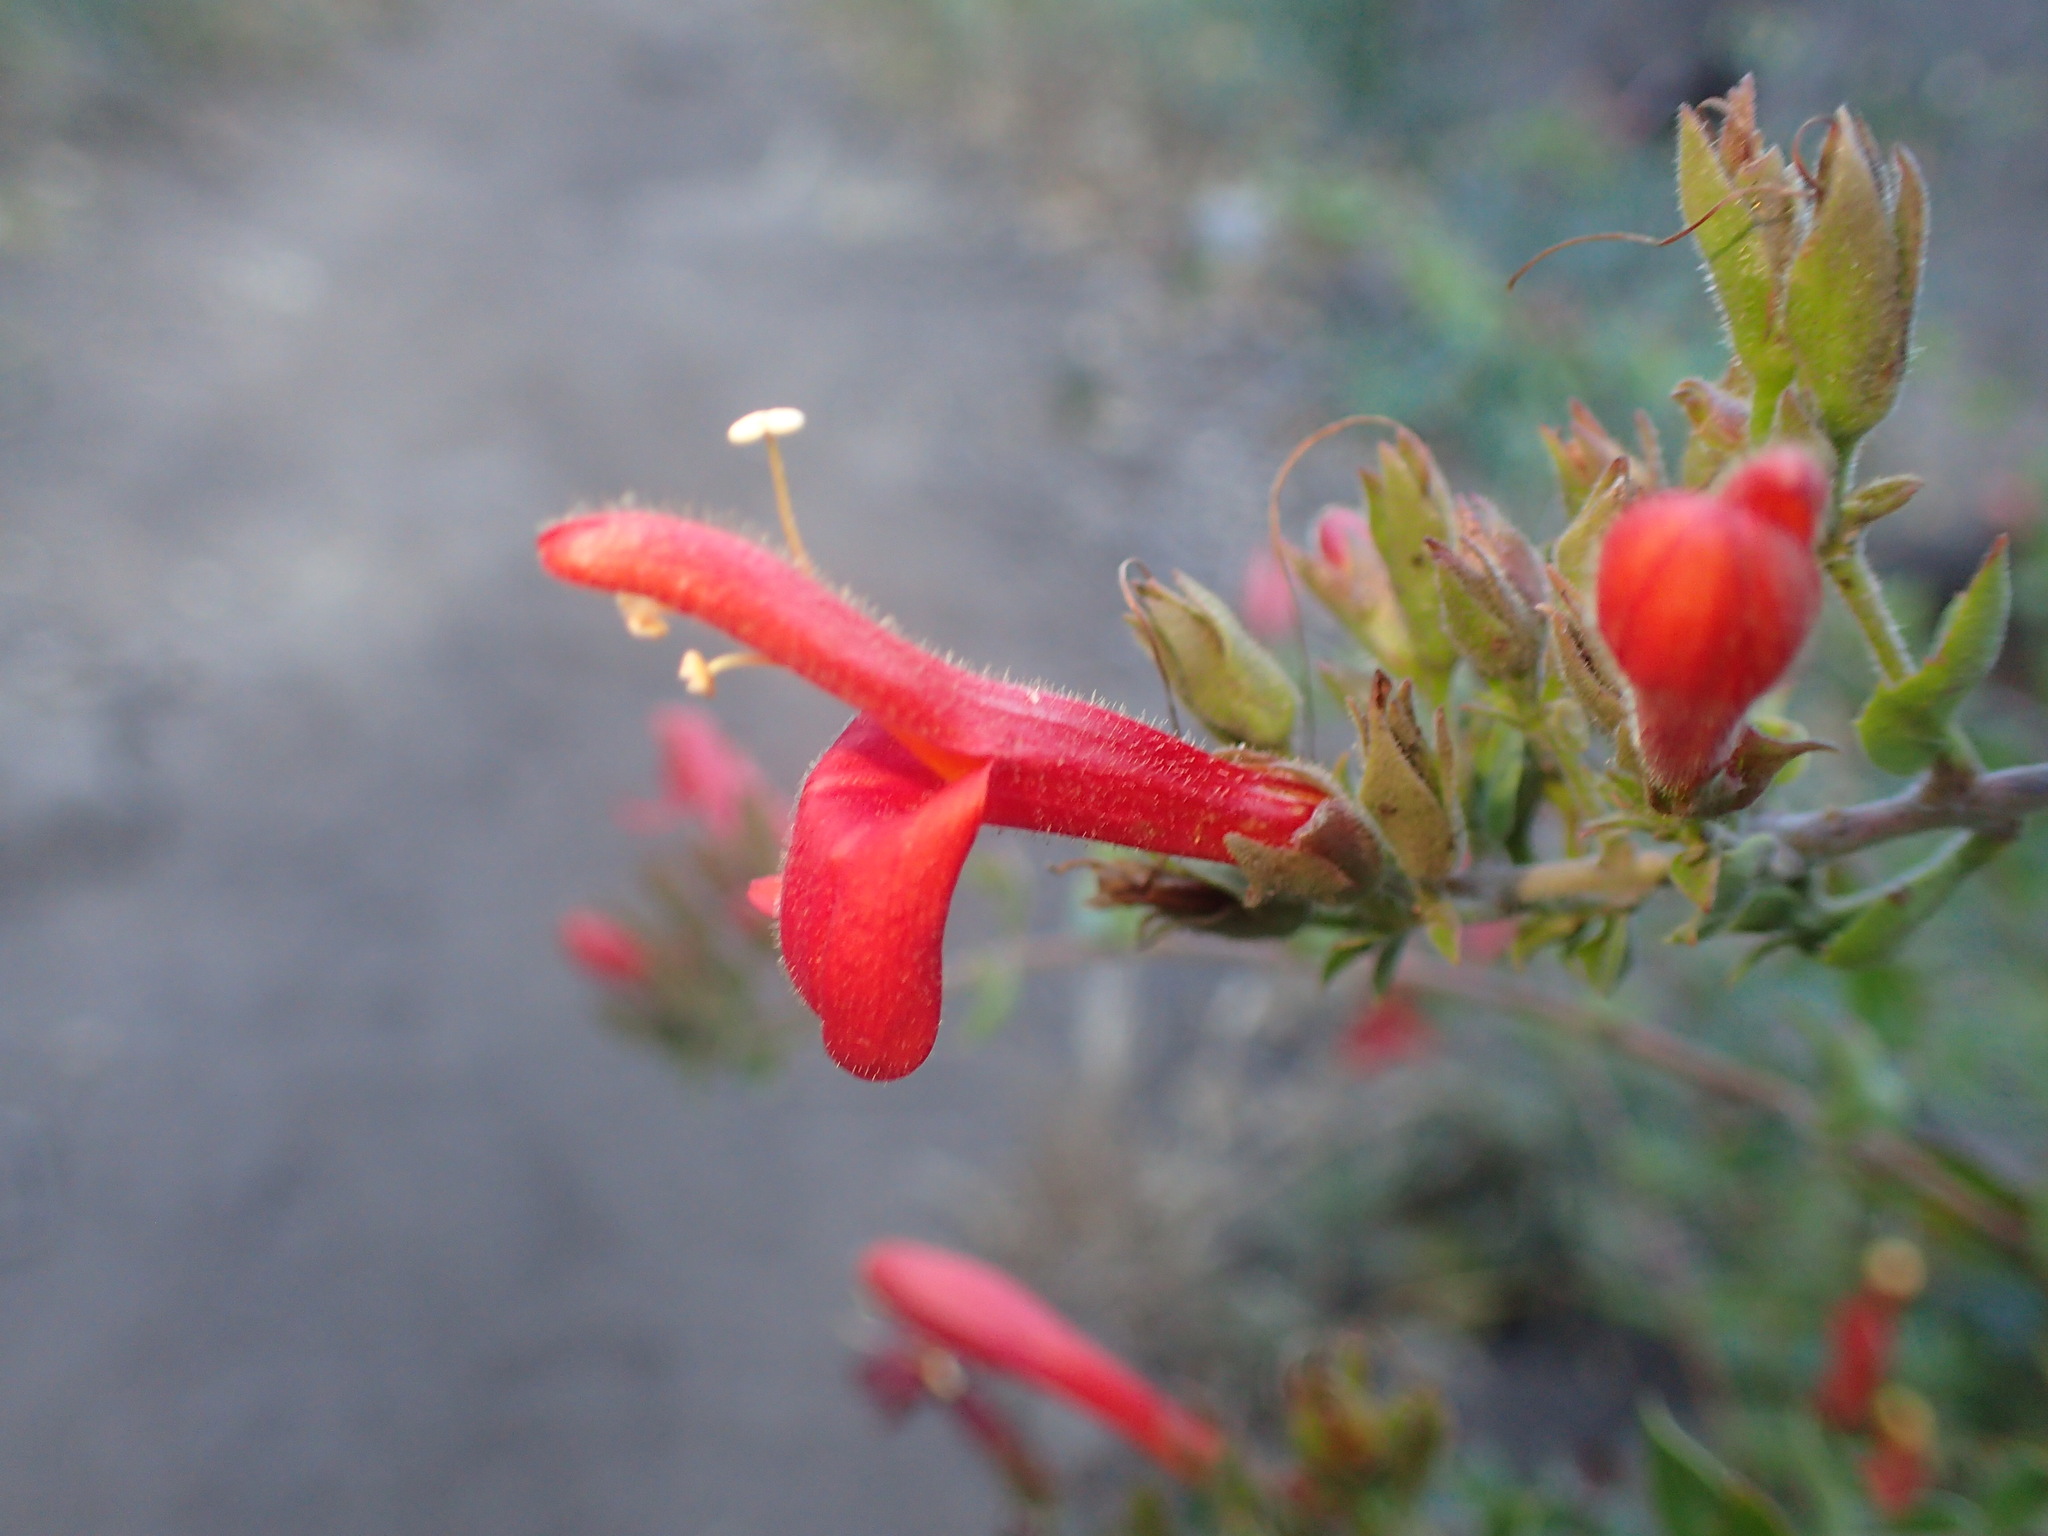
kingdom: Plantae
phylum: Tracheophyta
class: Magnoliopsida
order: Lamiales
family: Plantaginaceae
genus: Keckiella
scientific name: Keckiella cordifolia
